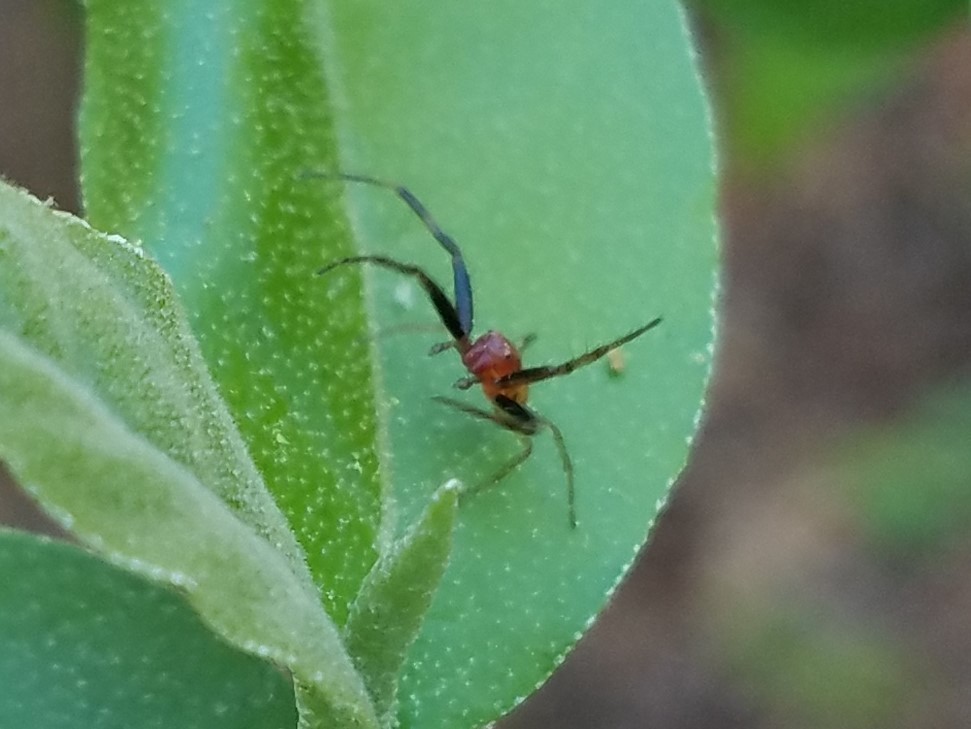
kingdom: Animalia
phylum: Arthropoda
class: Arachnida
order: Araneae
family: Thomisidae
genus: Synema
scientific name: Synema parvulum
